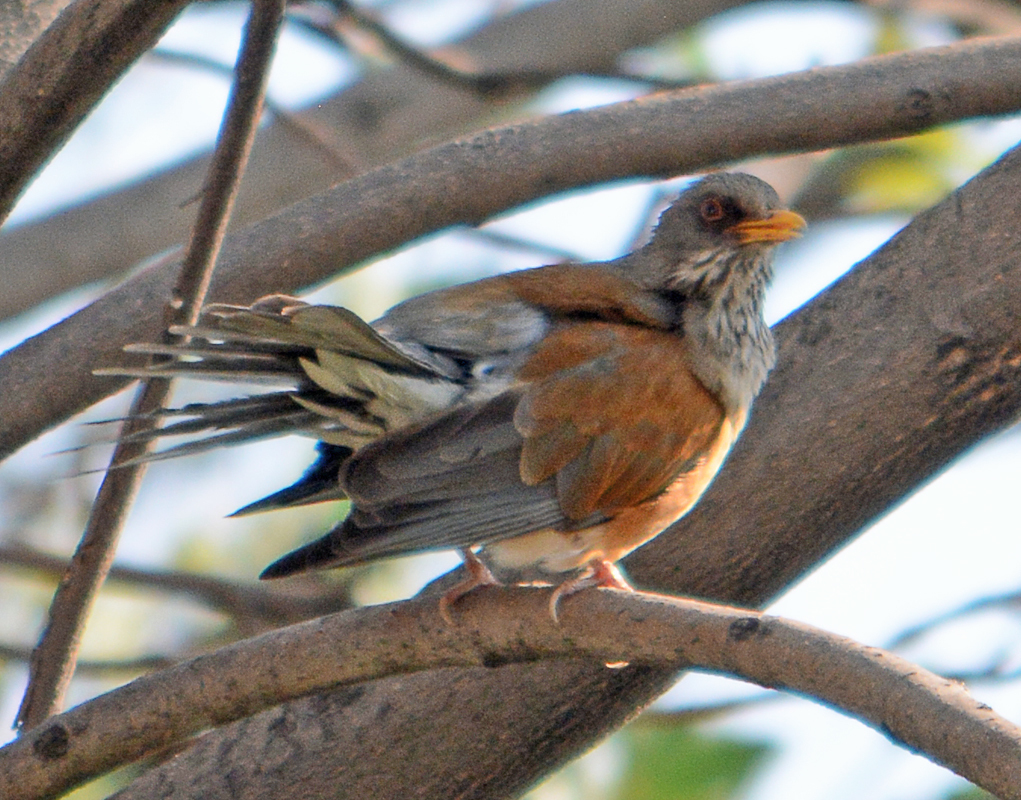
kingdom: Animalia
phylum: Chordata
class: Aves
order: Passeriformes
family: Turdidae
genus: Turdus
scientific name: Turdus rufopalliatus
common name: Rufous-backed robin
